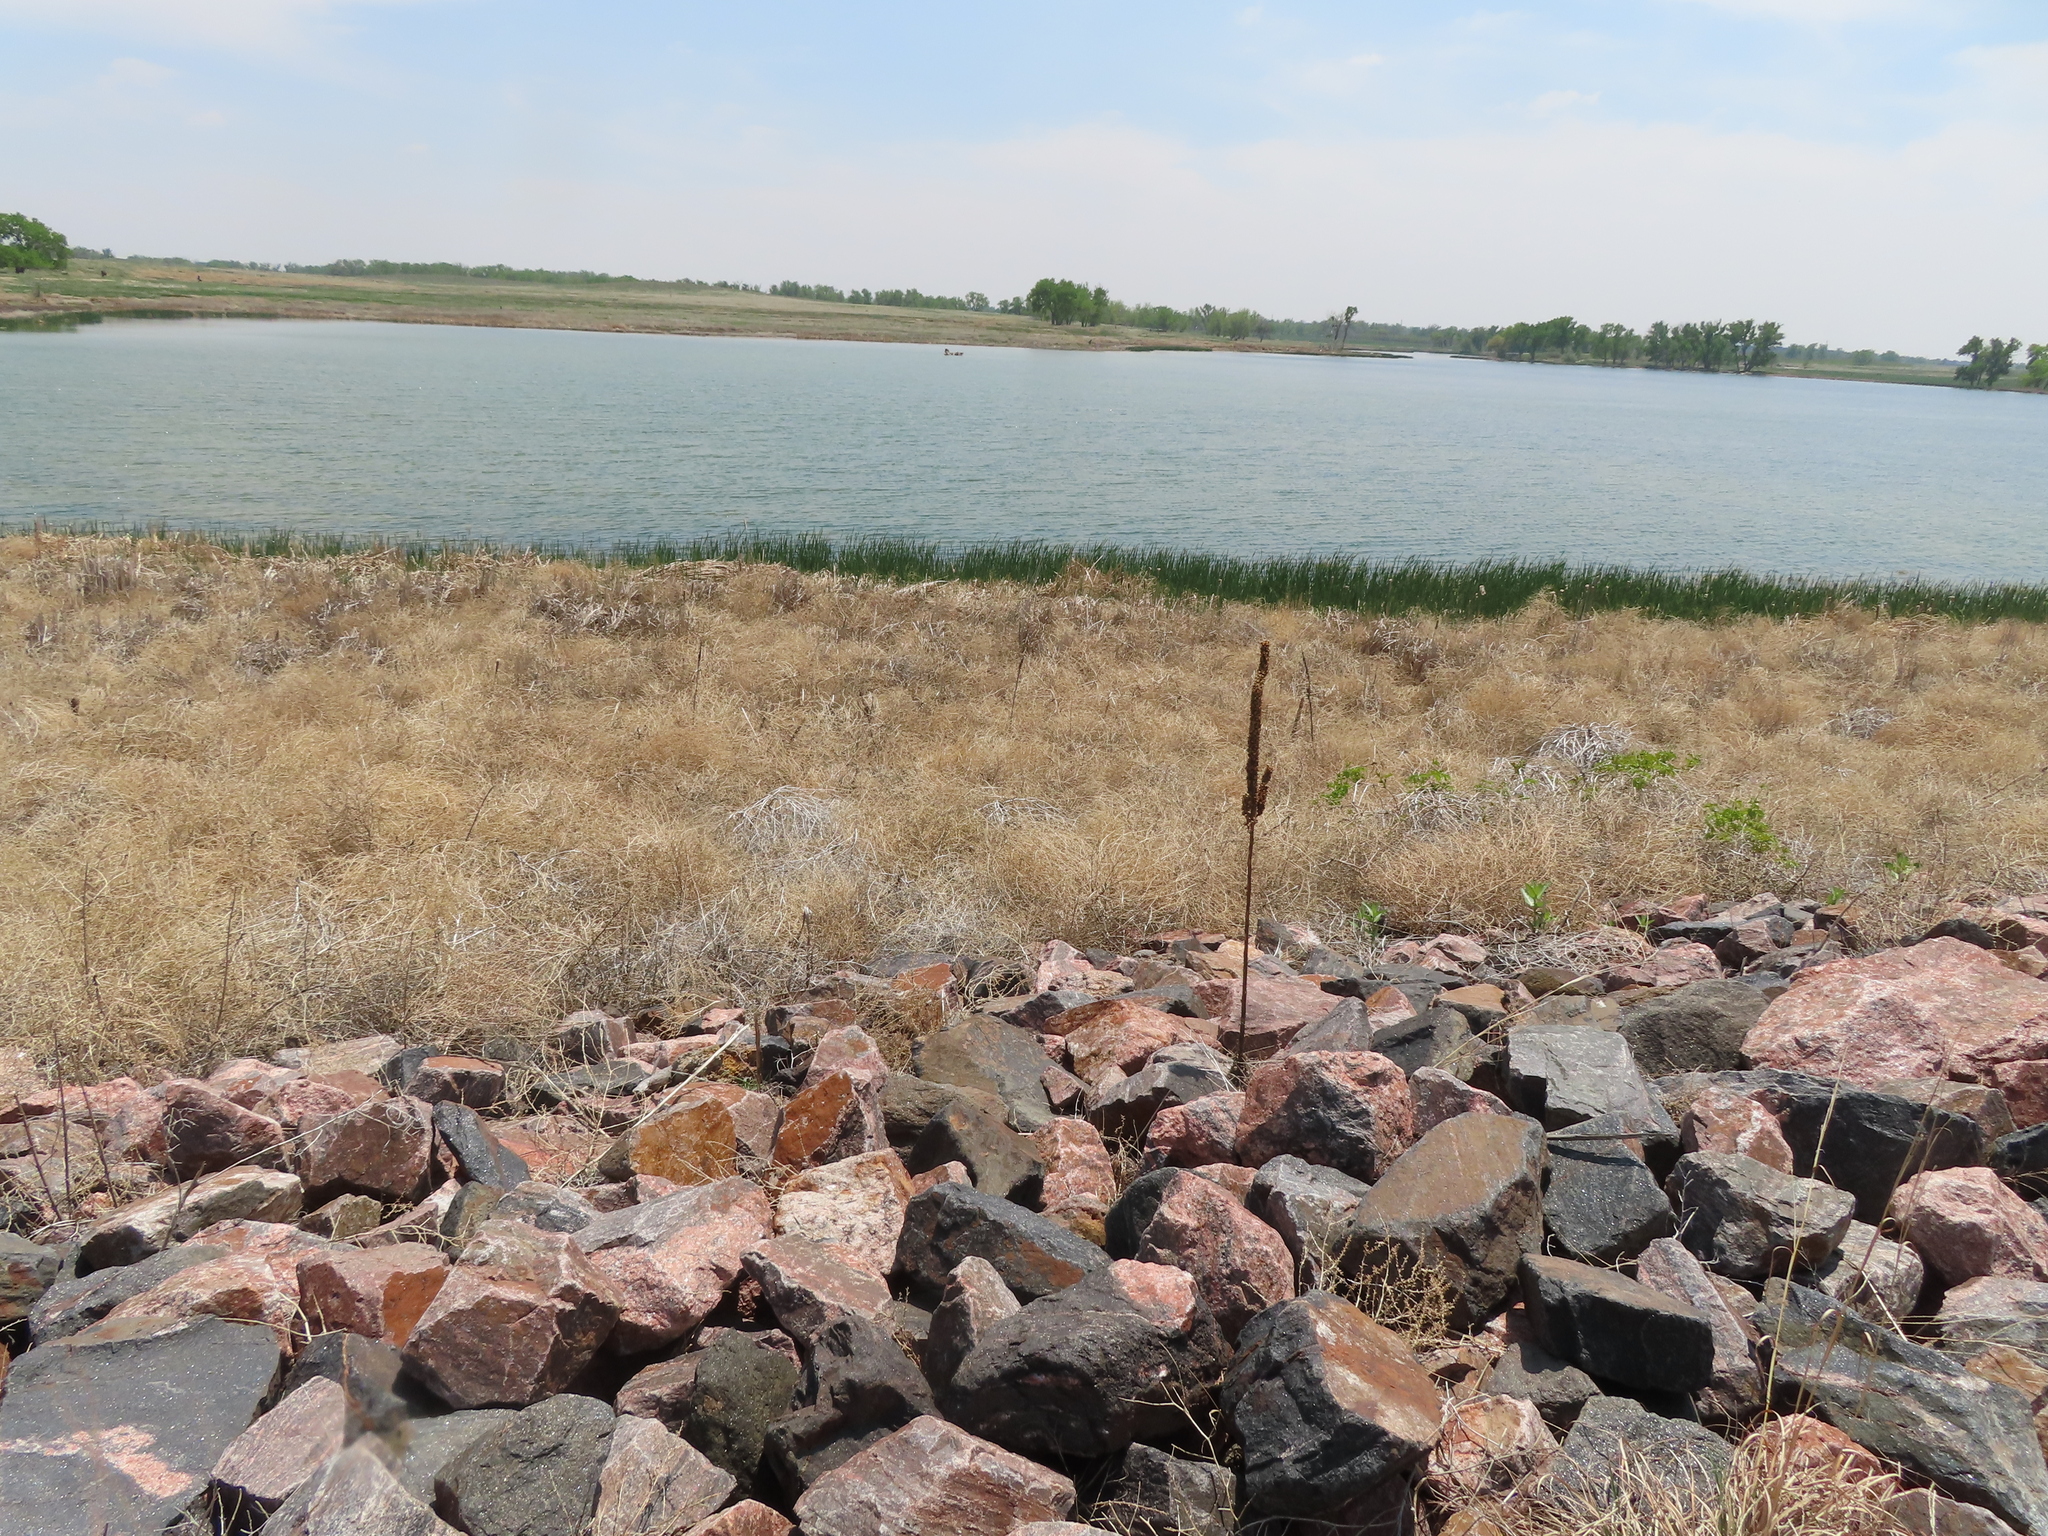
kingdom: Plantae
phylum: Tracheophyta
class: Magnoliopsida
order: Lamiales
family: Scrophulariaceae
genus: Verbascum
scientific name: Verbascum thapsus
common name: Common mullein
